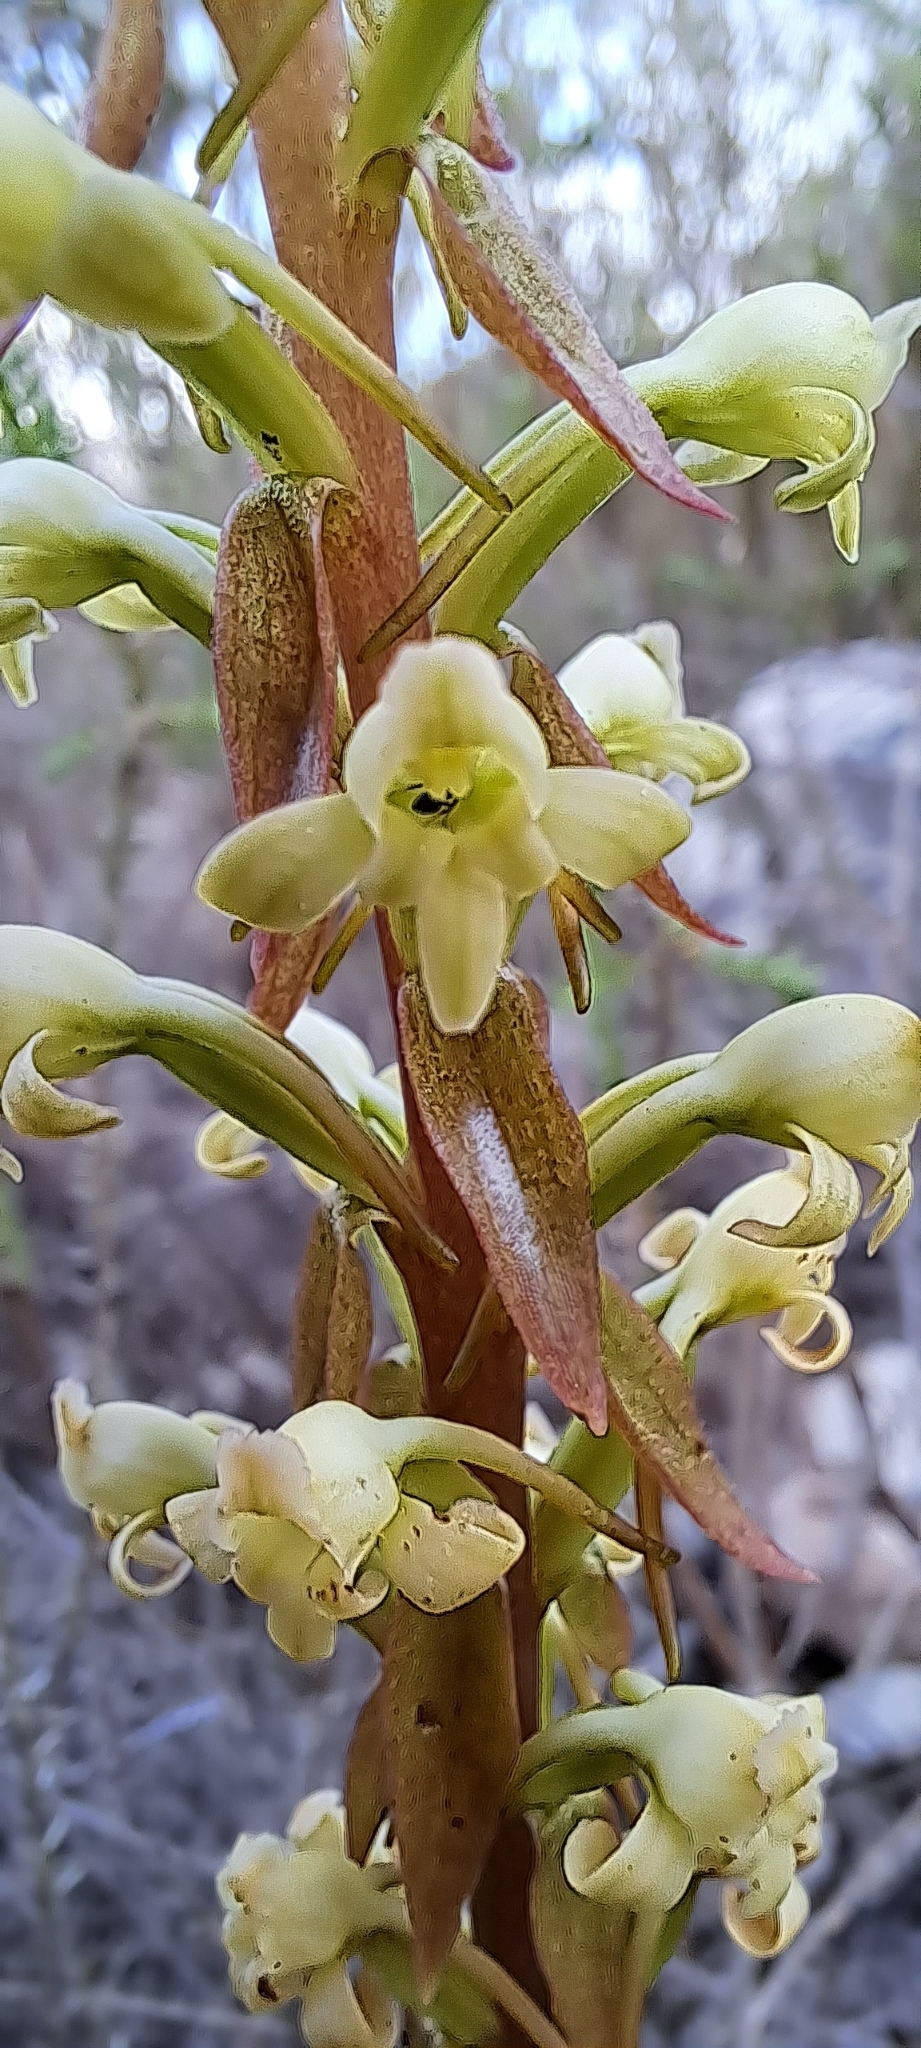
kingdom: Plantae
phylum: Tracheophyta
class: Liliopsida
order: Asparagales
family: Orchidaceae
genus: Satyrium
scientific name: Satyrium humile
